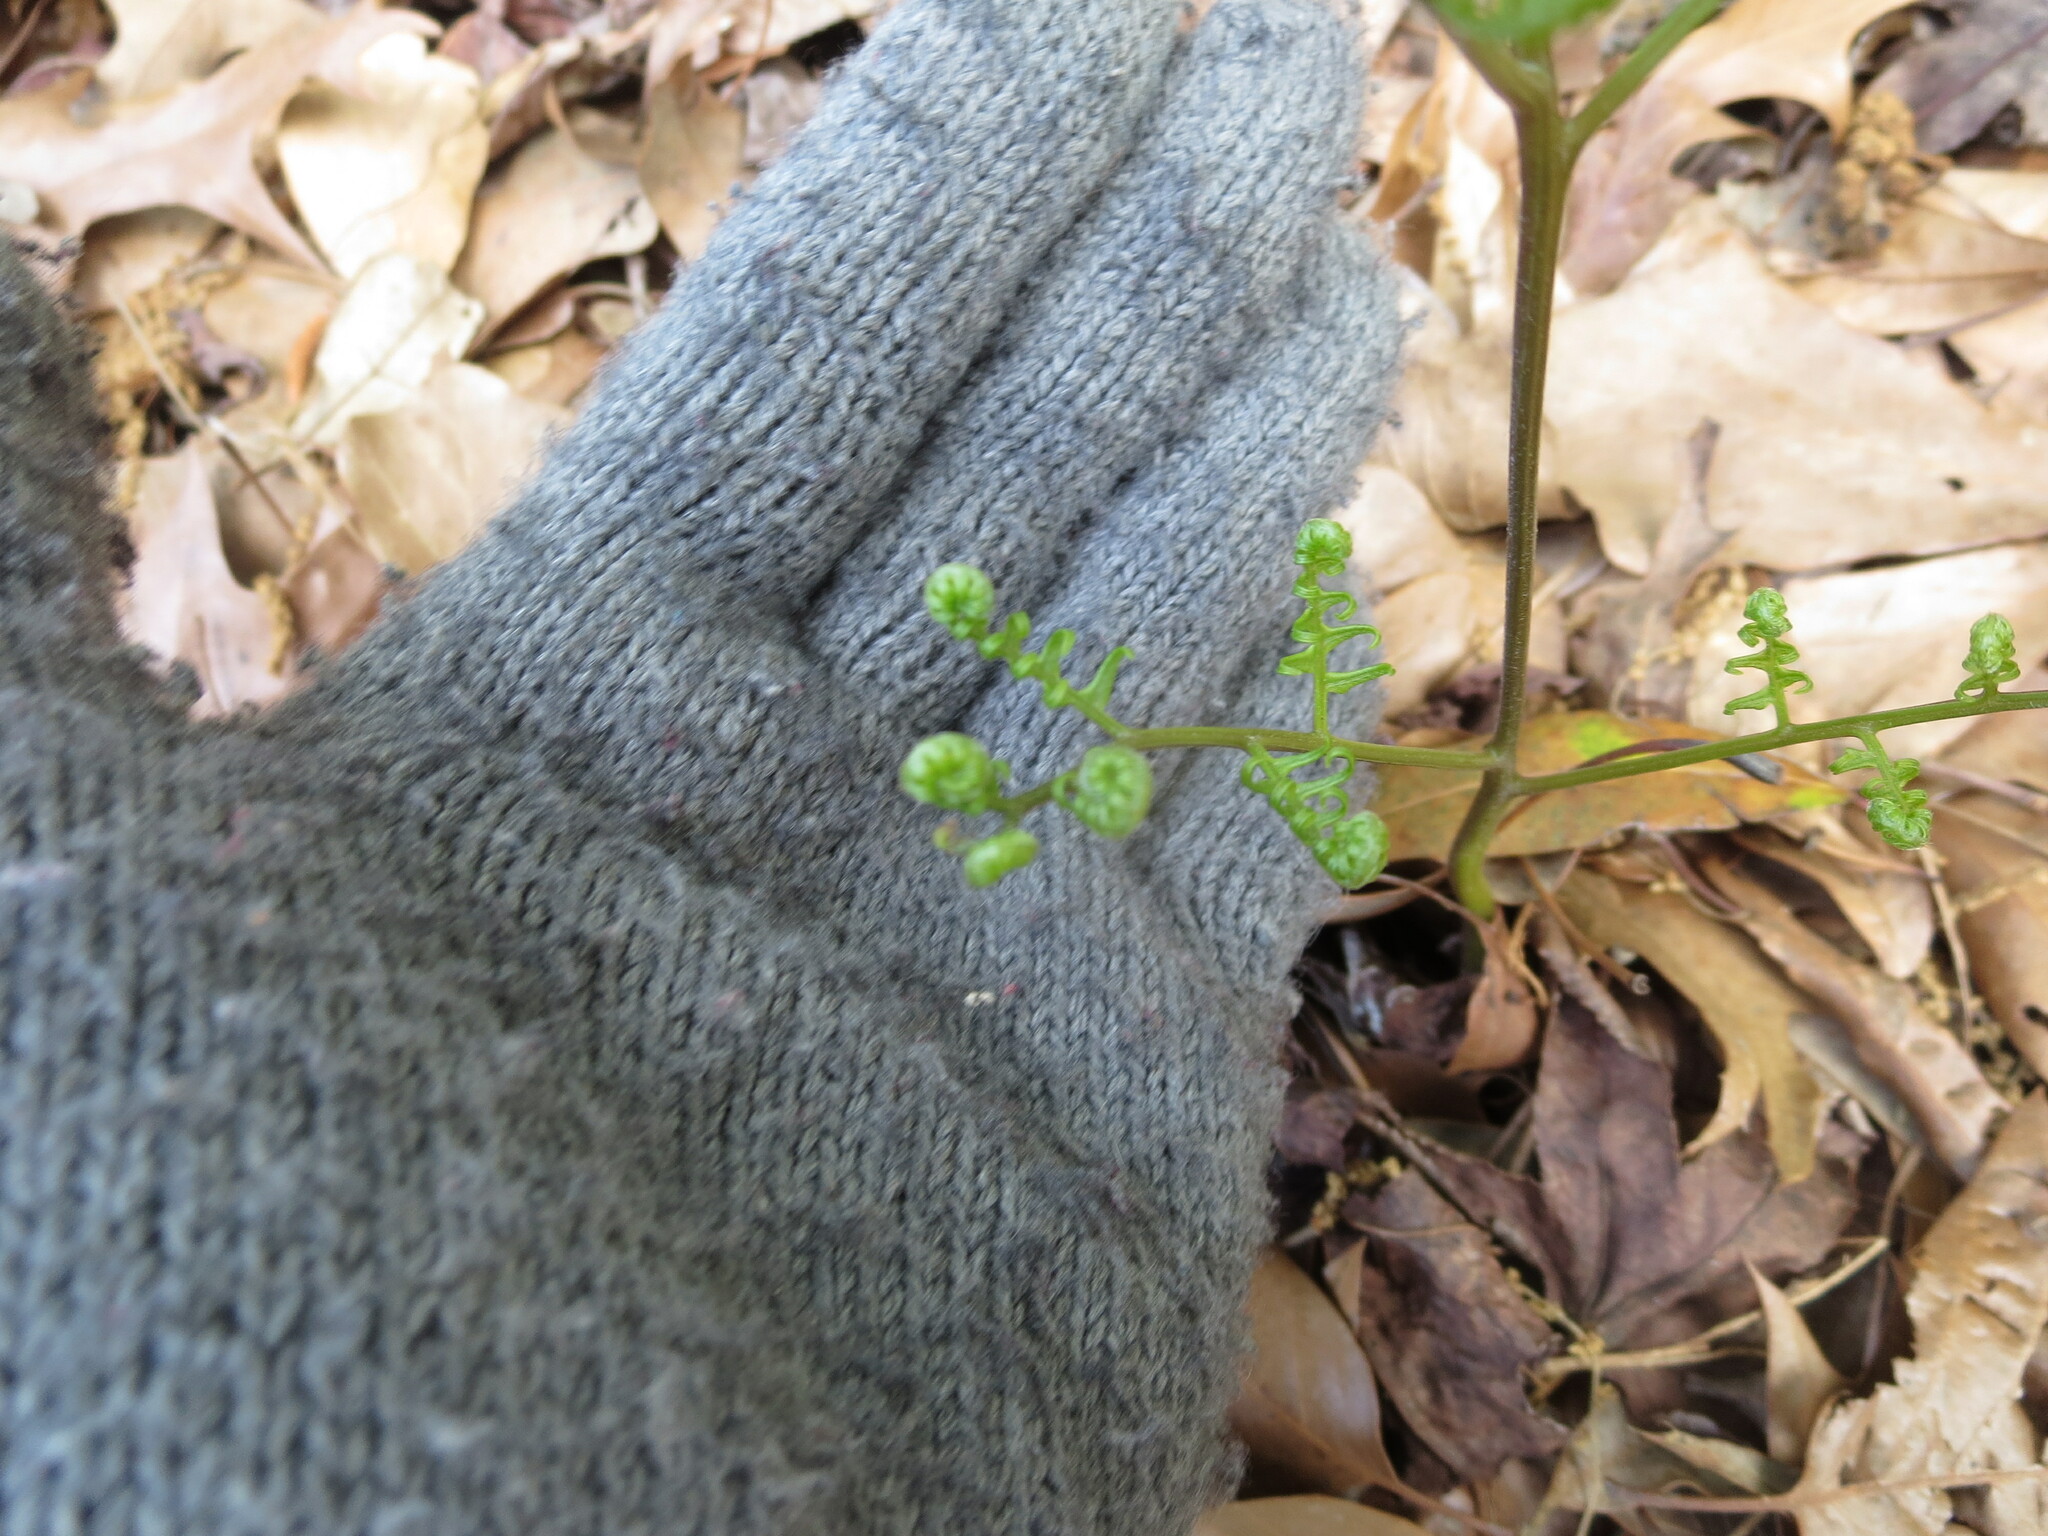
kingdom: Plantae
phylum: Tracheophyta
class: Polypodiopsida
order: Polypodiales
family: Dennstaedtiaceae
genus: Pteridium
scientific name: Pteridium aquilinum
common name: Bracken
